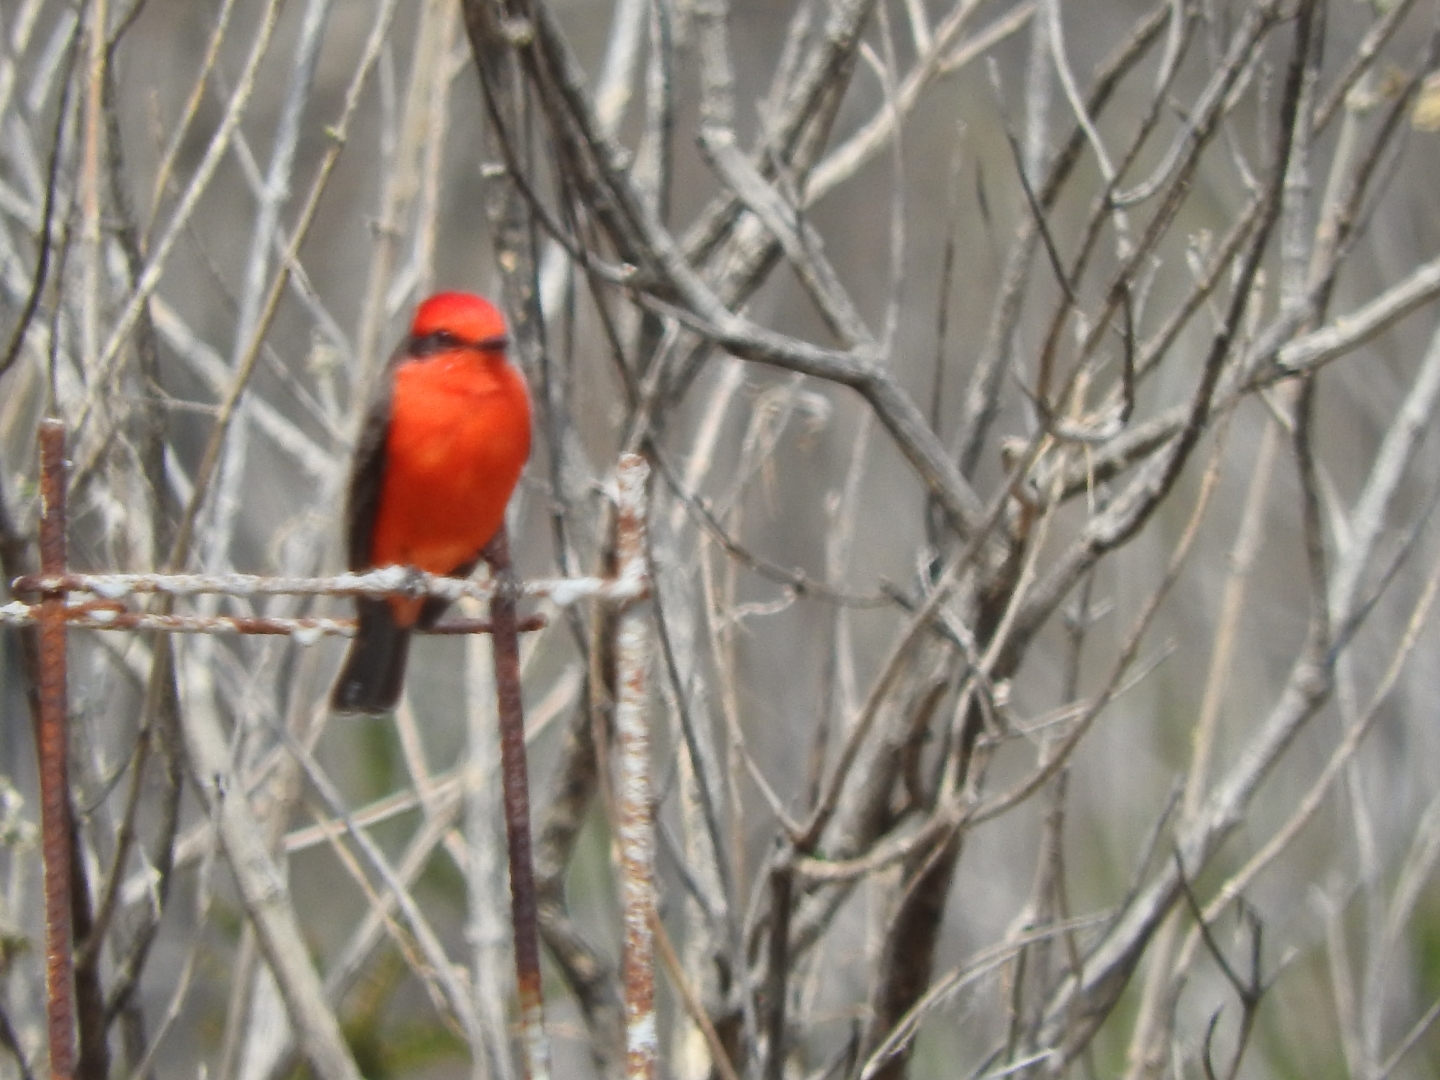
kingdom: Animalia
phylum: Chordata
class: Aves
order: Passeriformes
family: Tyrannidae
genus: Pyrocephalus
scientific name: Pyrocephalus rubinus
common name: Vermilion flycatcher
